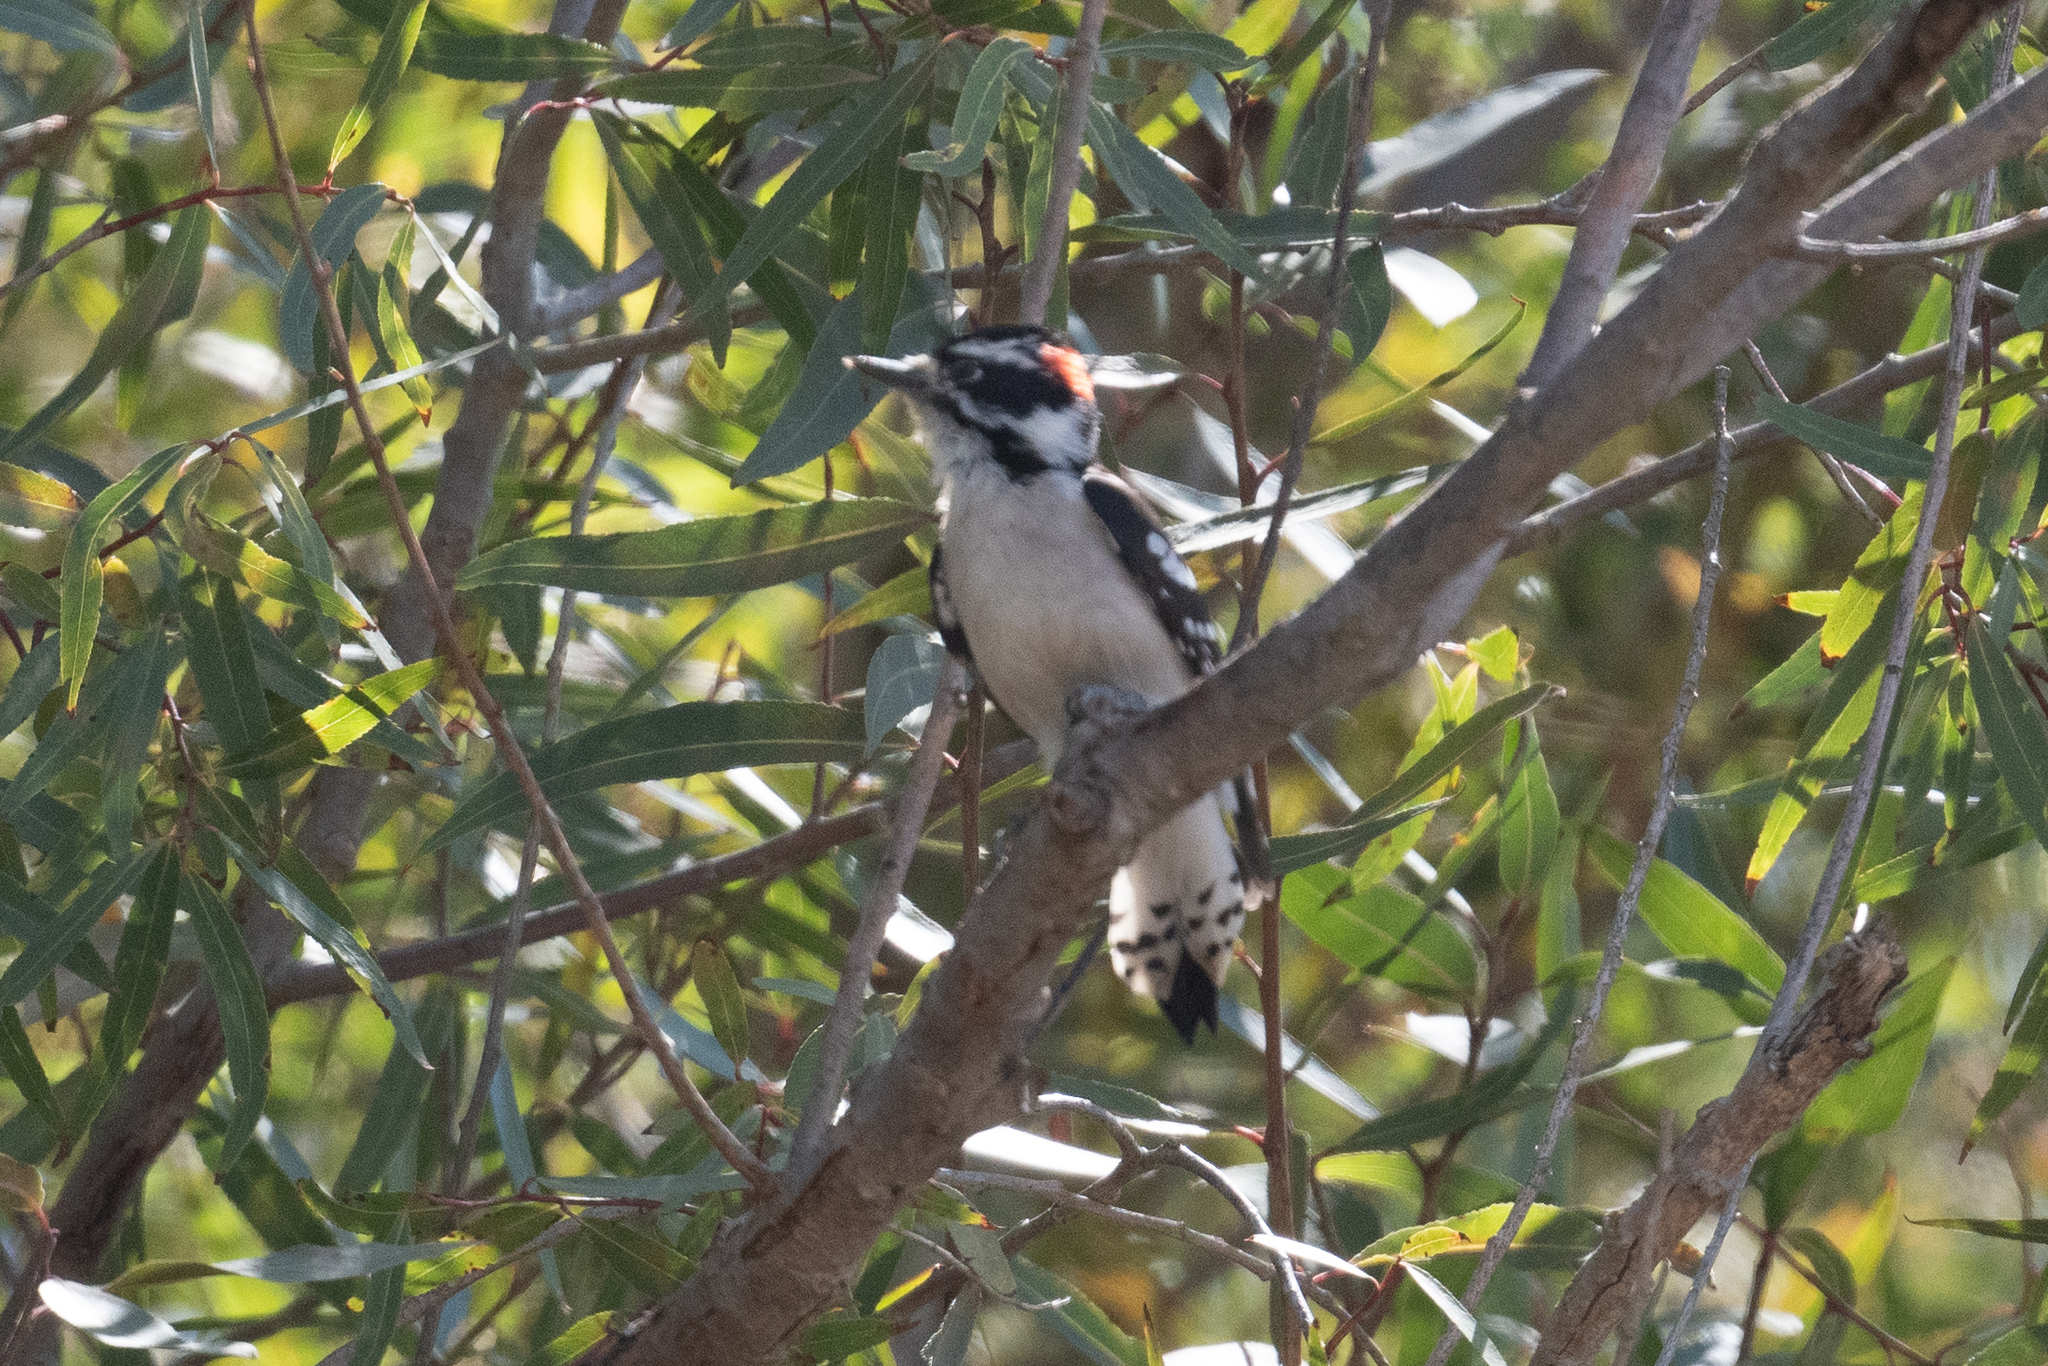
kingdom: Animalia
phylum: Chordata
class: Aves
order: Piciformes
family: Picidae
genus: Dryobates
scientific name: Dryobates pubescens
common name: Downy woodpecker
